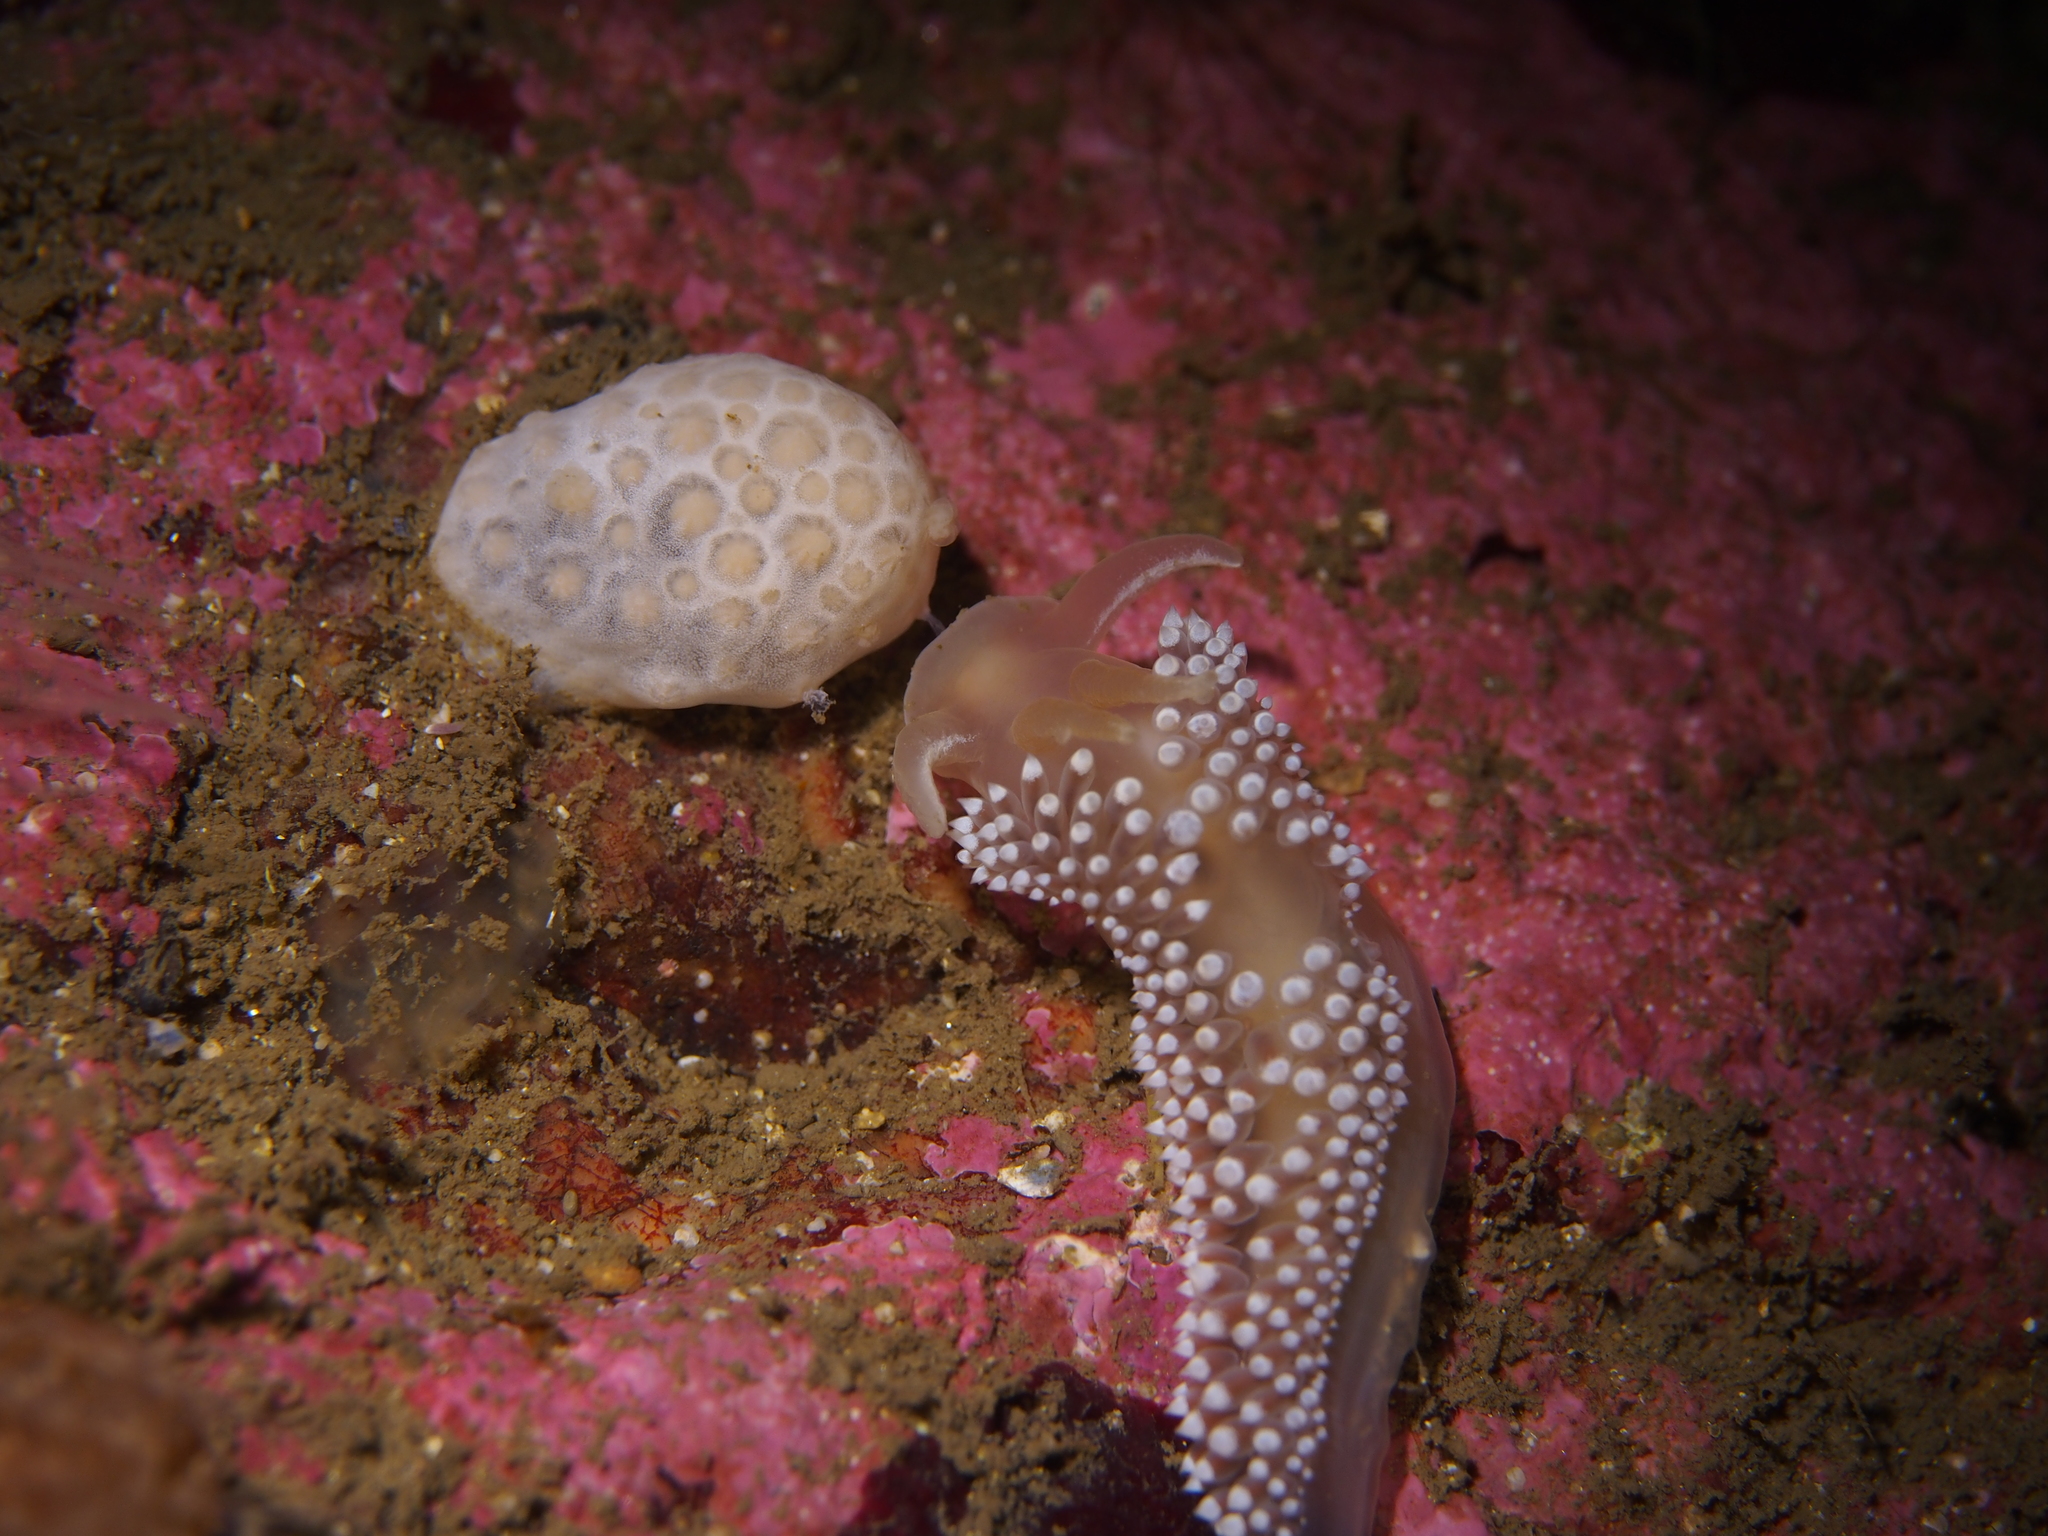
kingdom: Animalia
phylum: Mollusca
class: Gastropoda
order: Nudibranchia
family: Coryphellidae
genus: Coryphella
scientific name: Coryphella verrucosa
